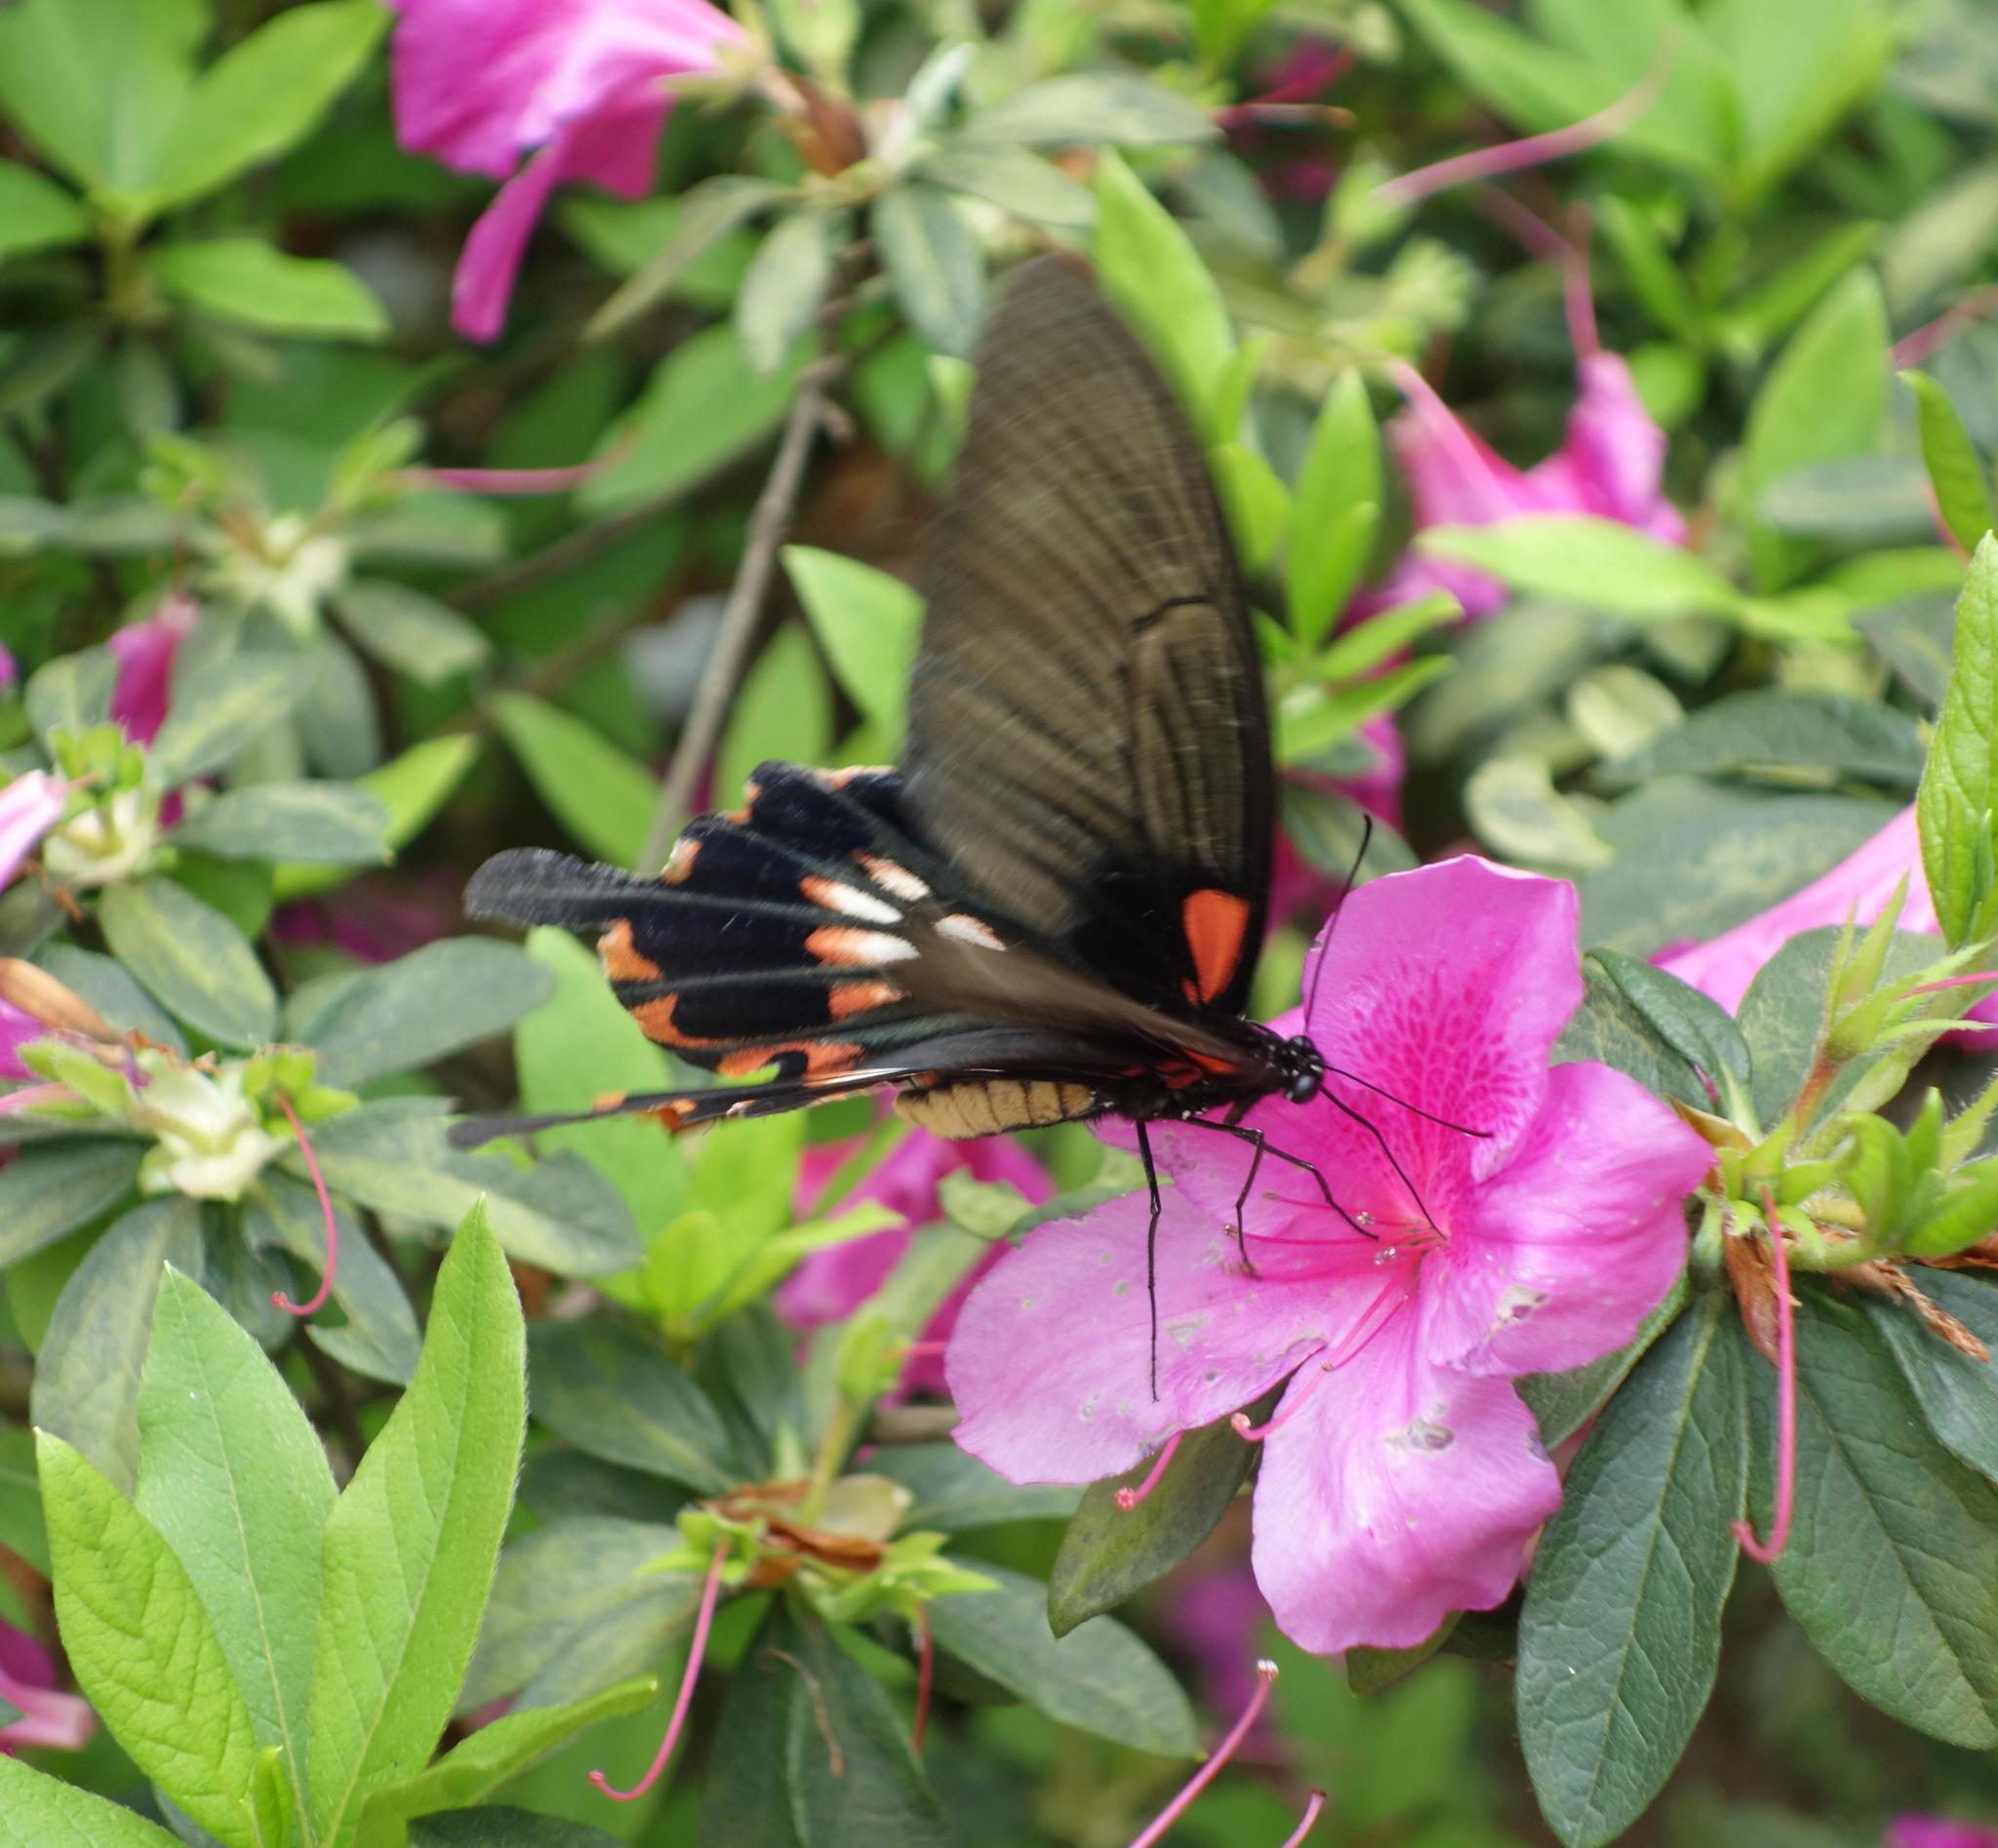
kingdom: Animalia
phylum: Arthropoda
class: Insecta
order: Lepidoptera
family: Papilionidae
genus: Papilio
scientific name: Papilio memnon
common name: Great mormon
